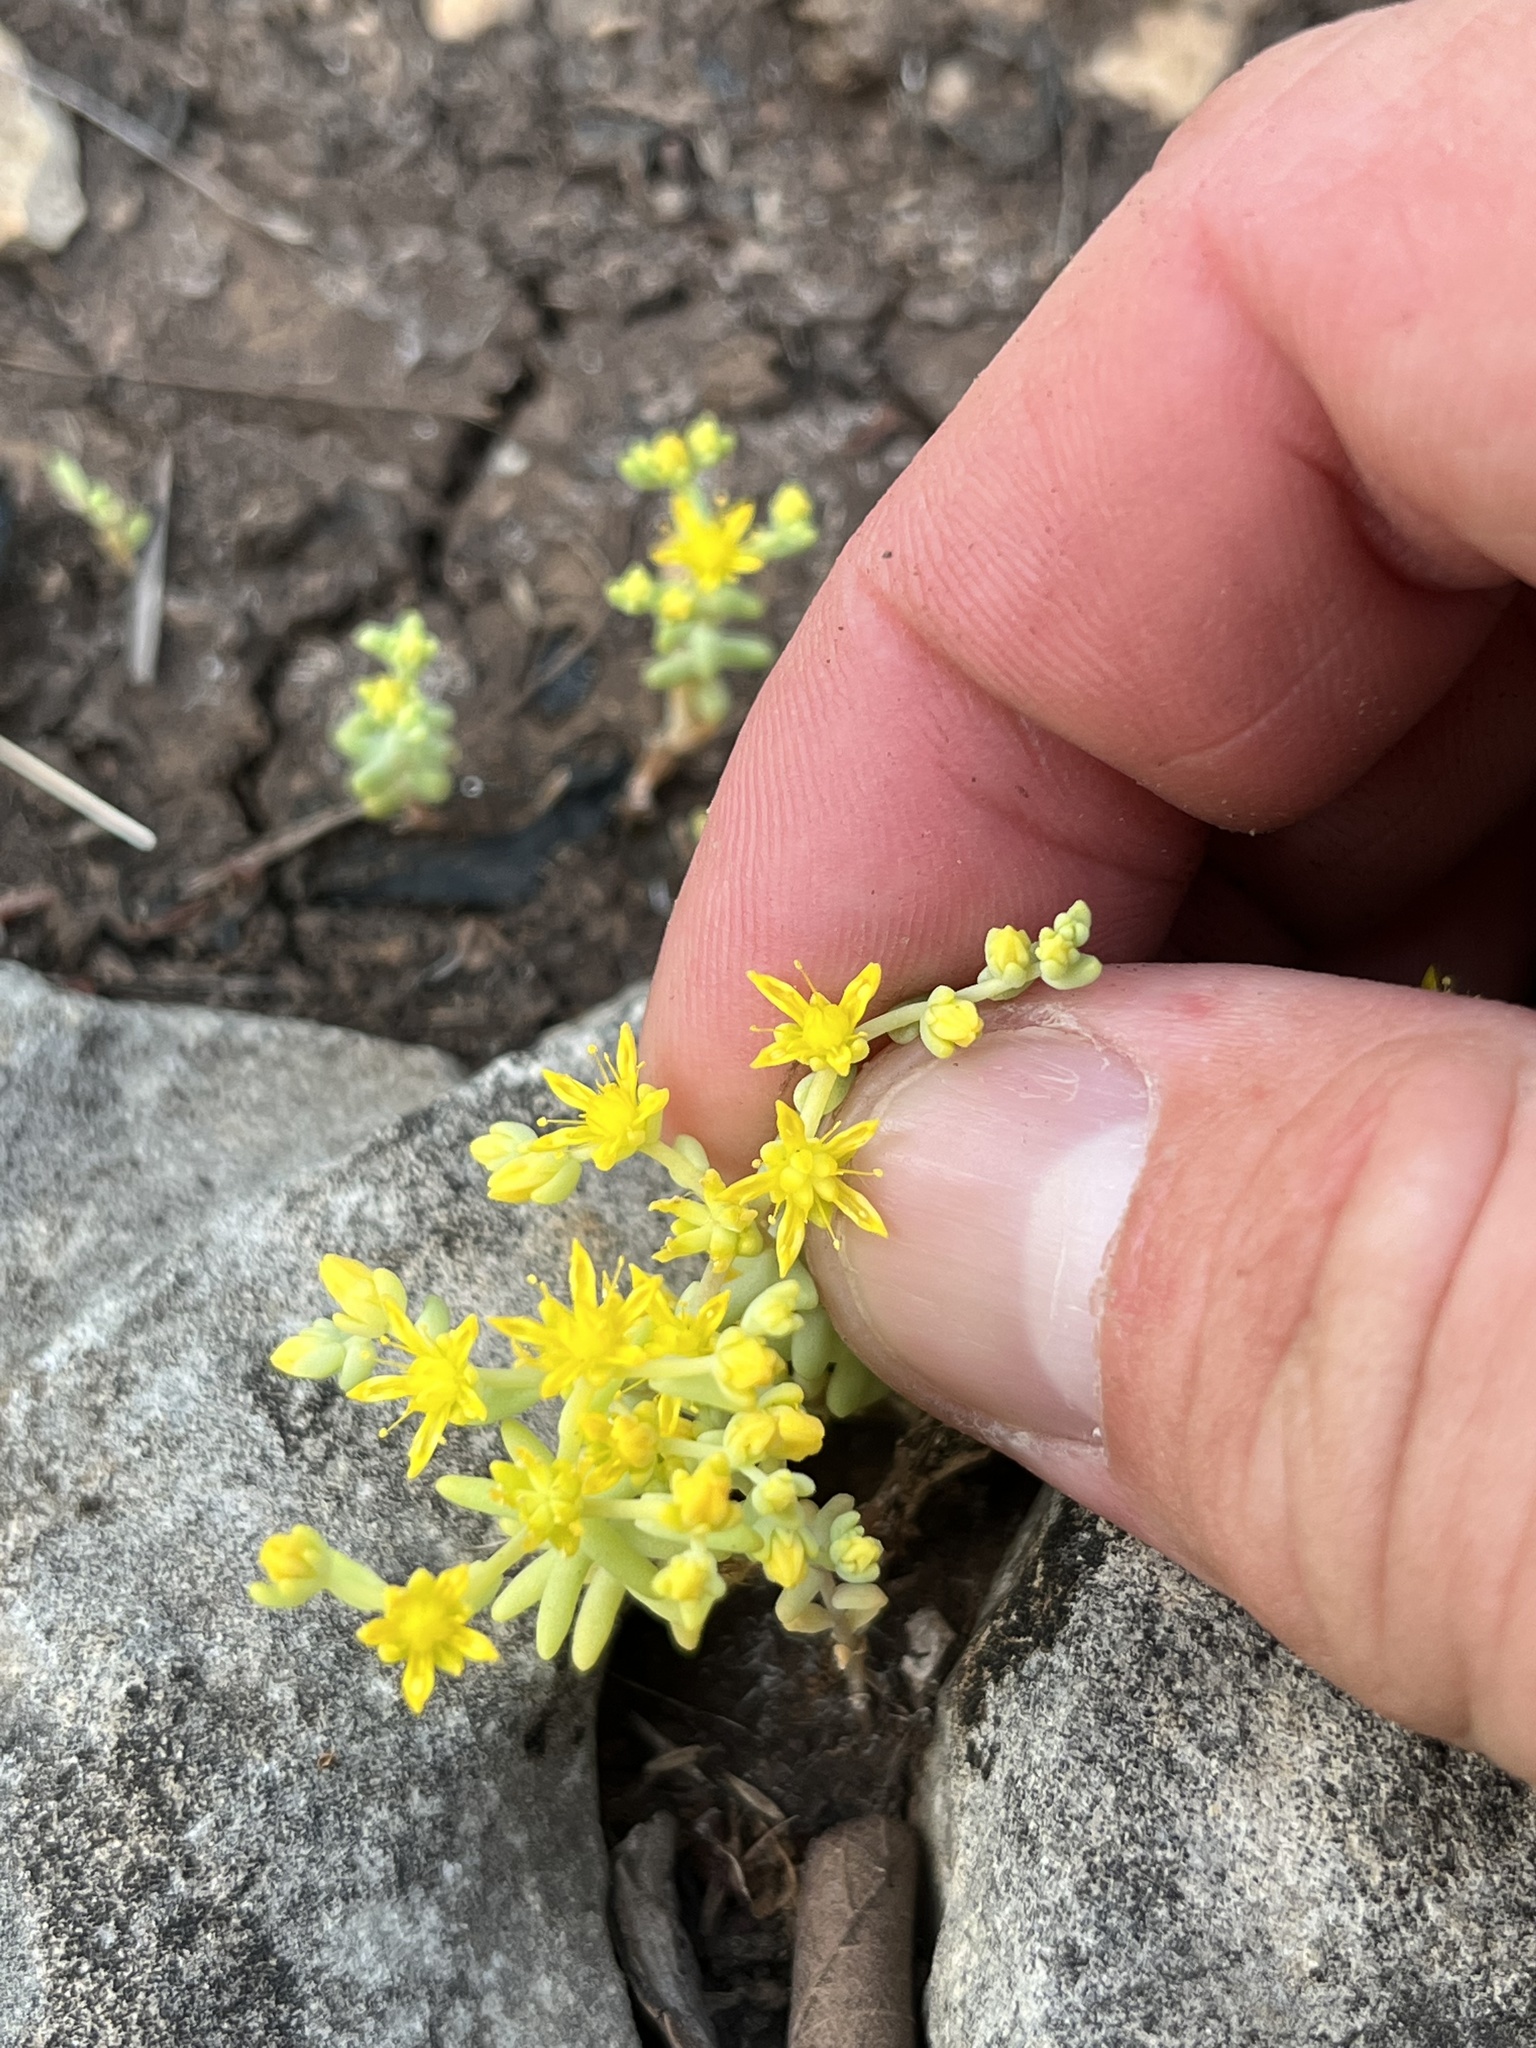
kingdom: Plantae
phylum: Tracheophyta
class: Magnoliopsida
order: Saxifragales
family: Crassulaceae
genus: Sedum
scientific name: Sedum nuttallii
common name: Yellow stonecrop
